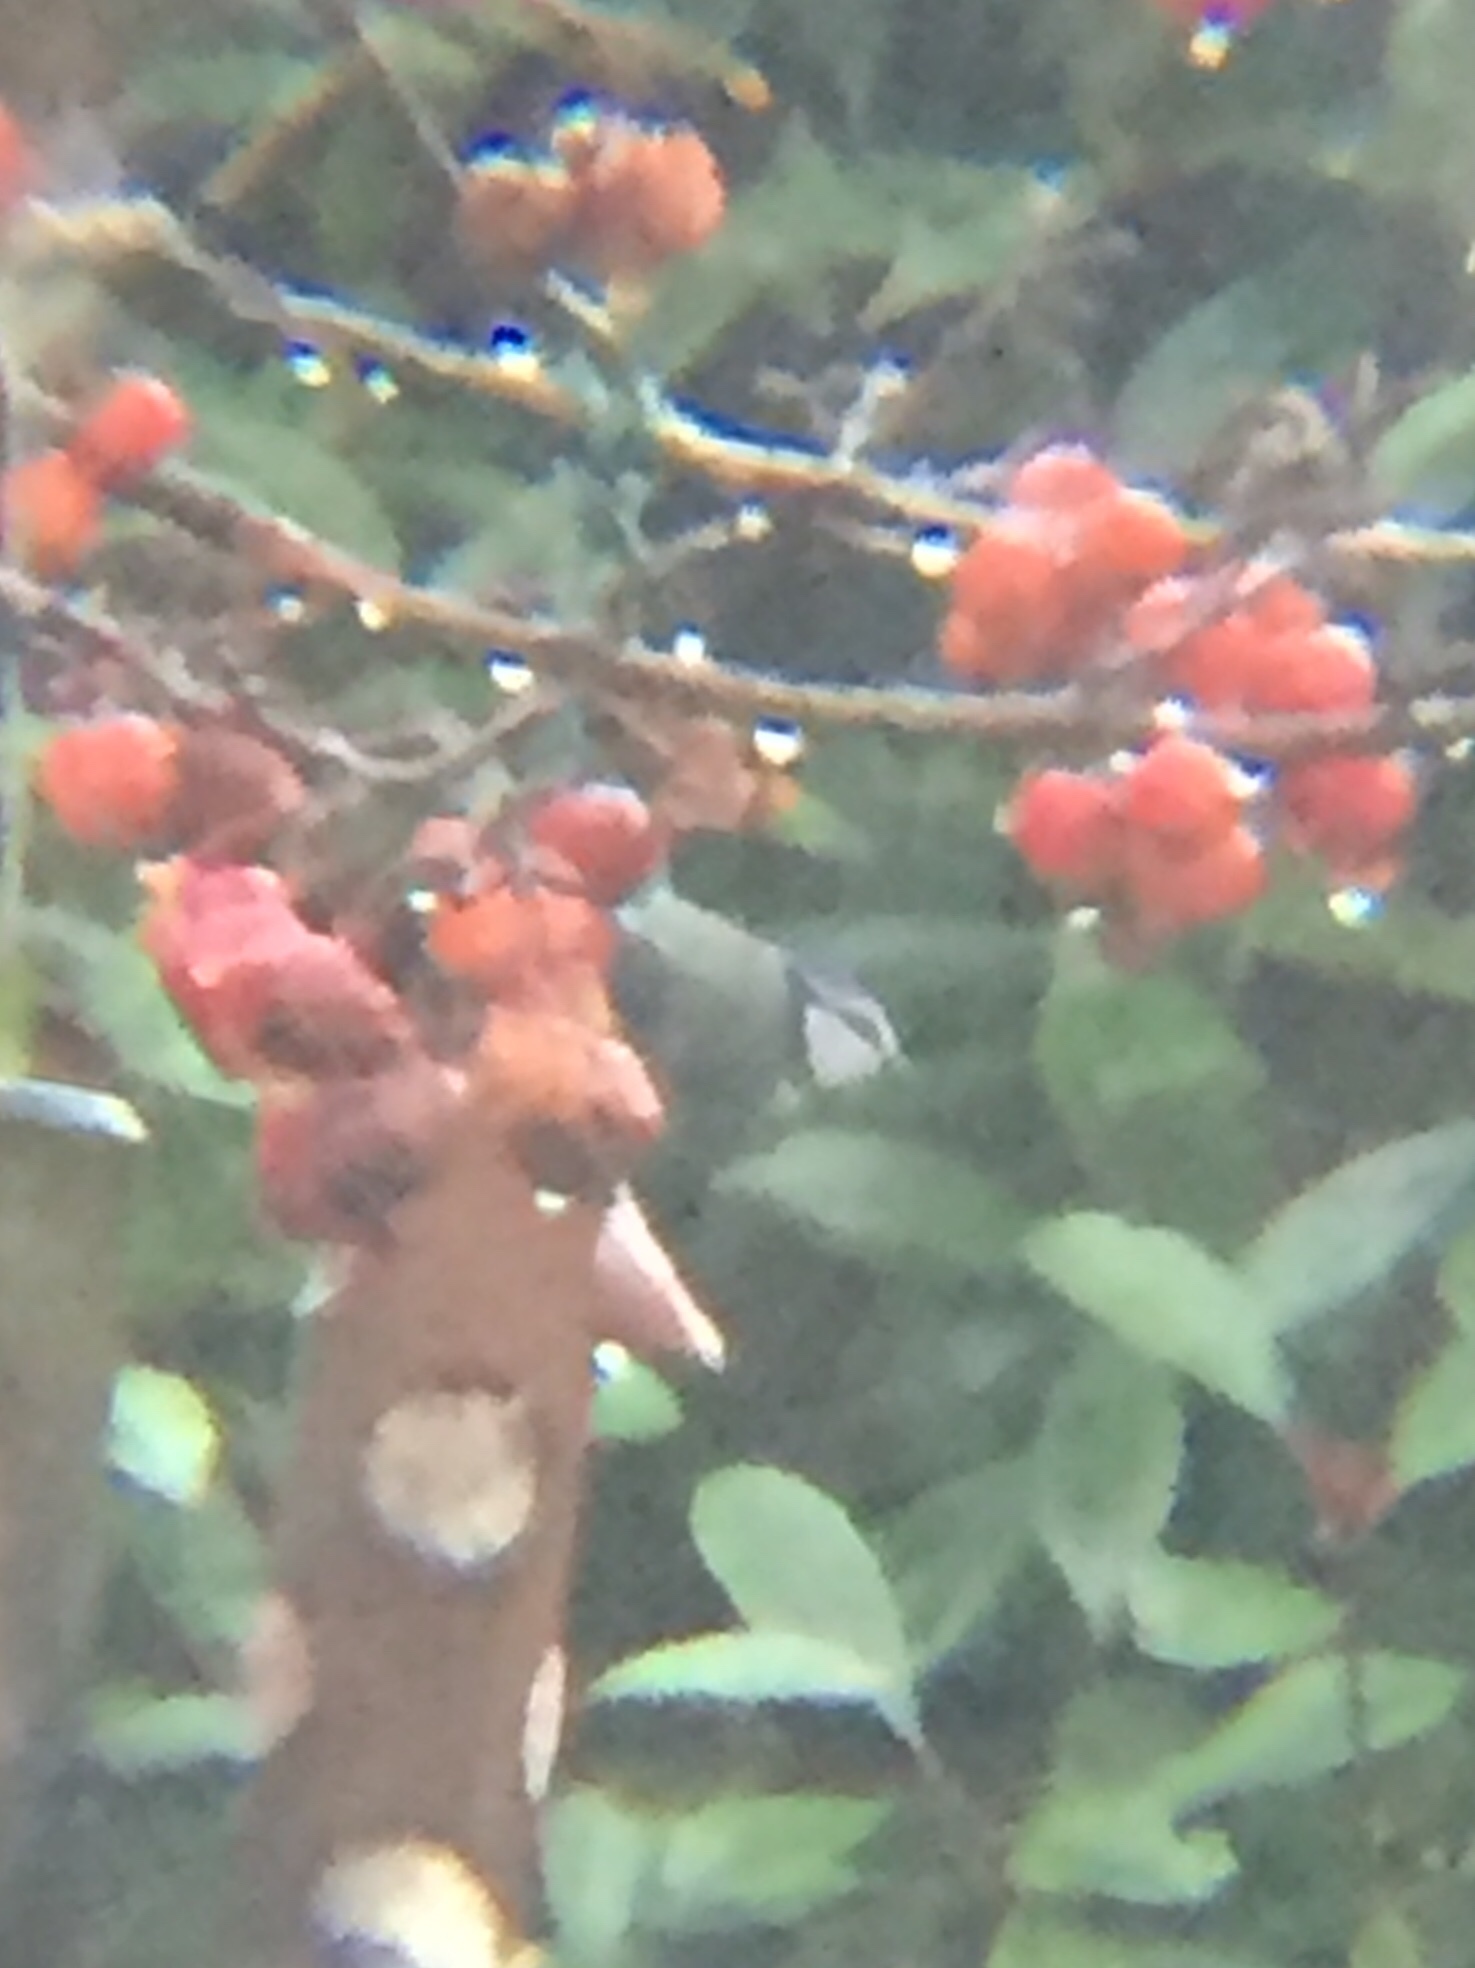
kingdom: Animalia
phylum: Chordata
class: Aves
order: Passeriformes
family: Paridae
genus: Cyanistes
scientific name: Cyanistes caeruleus
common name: Eurasian blue tit
